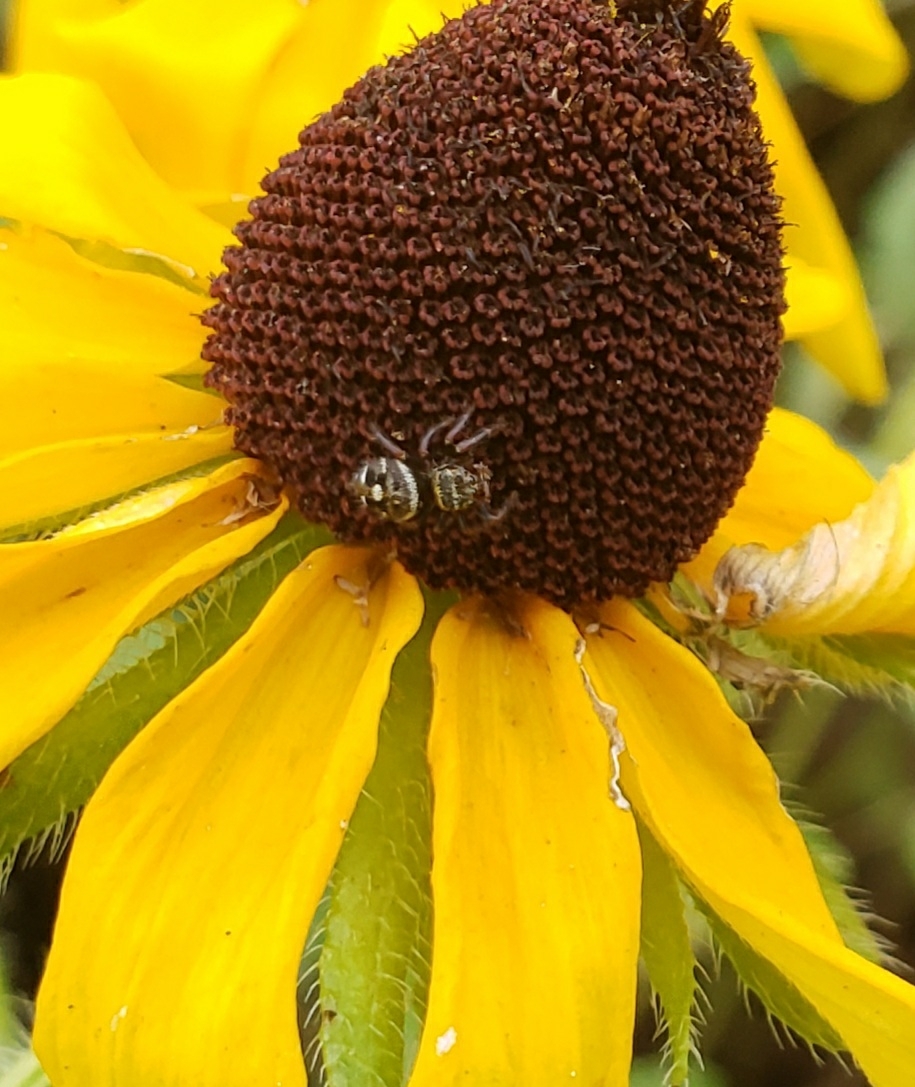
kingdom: Animalia
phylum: Arthropoda
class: Arachnida
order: Araneae
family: Salticidae
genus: Phidippus
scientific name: Phidippus audax
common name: Bold jumper
